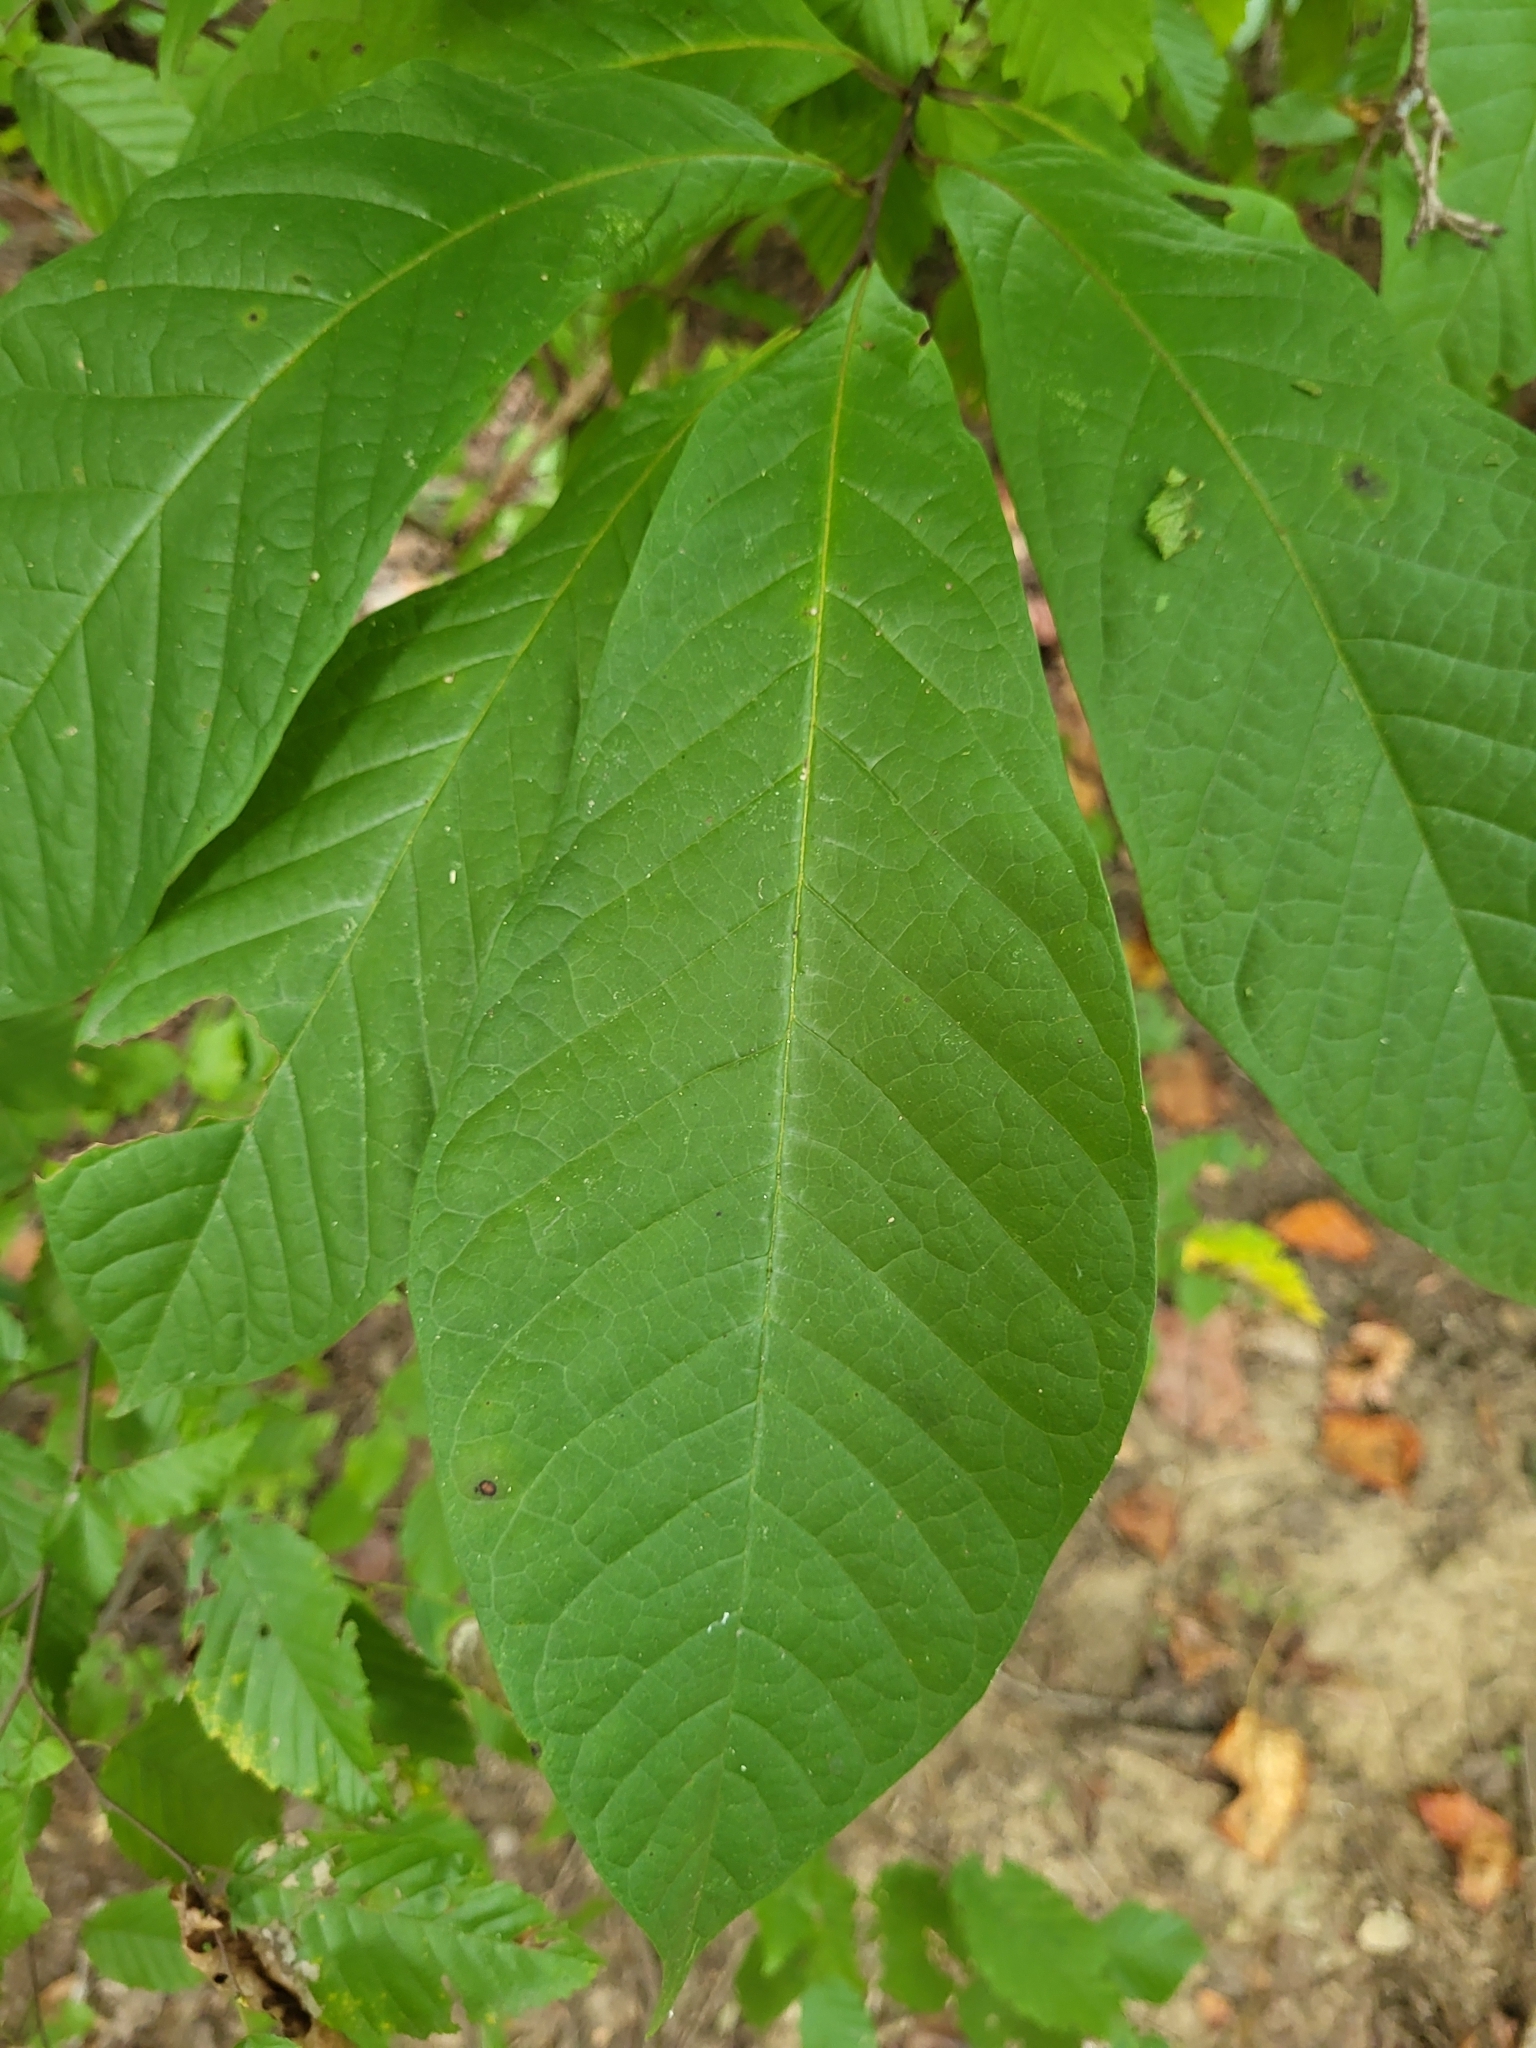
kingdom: Plantae
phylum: Tracheophyta
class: Magnoliopsida
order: Magnoliales
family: Annonaceae
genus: Asimina
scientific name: Asimina triloba
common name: Dog-banana
